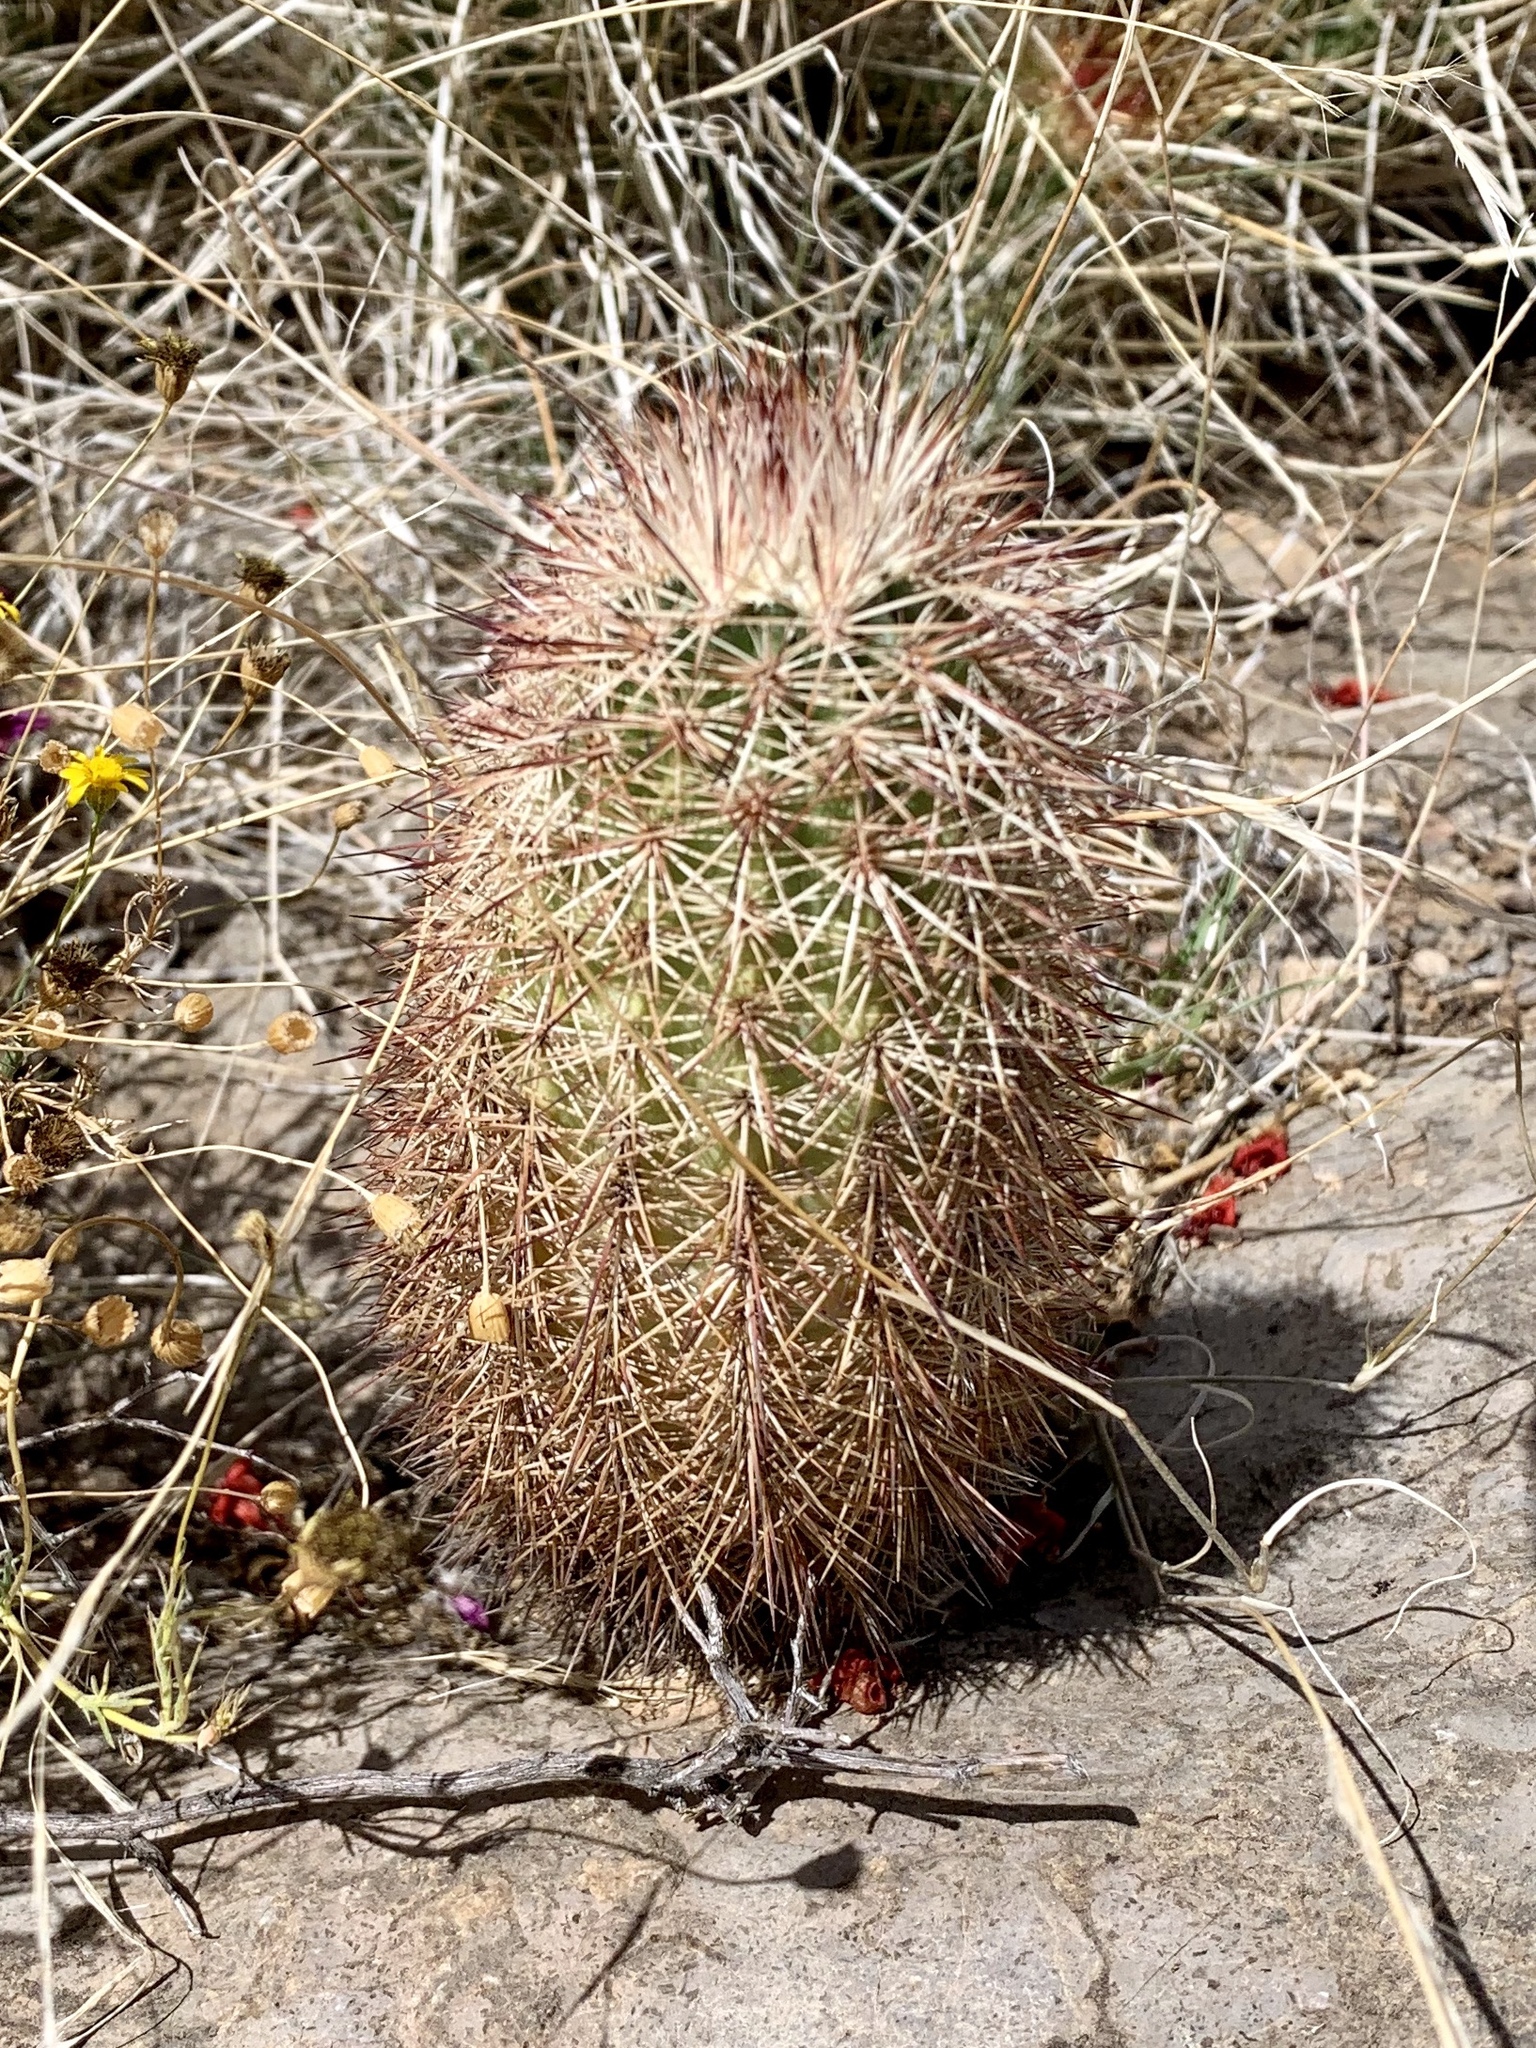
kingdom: Plantae
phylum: Tracheophyta
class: Magnoliopsida
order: Caryophyllales
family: Cactaceae
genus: Echinocereus
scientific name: Echinocereus dasyacanthus
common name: Spiny hedgehog cactus
